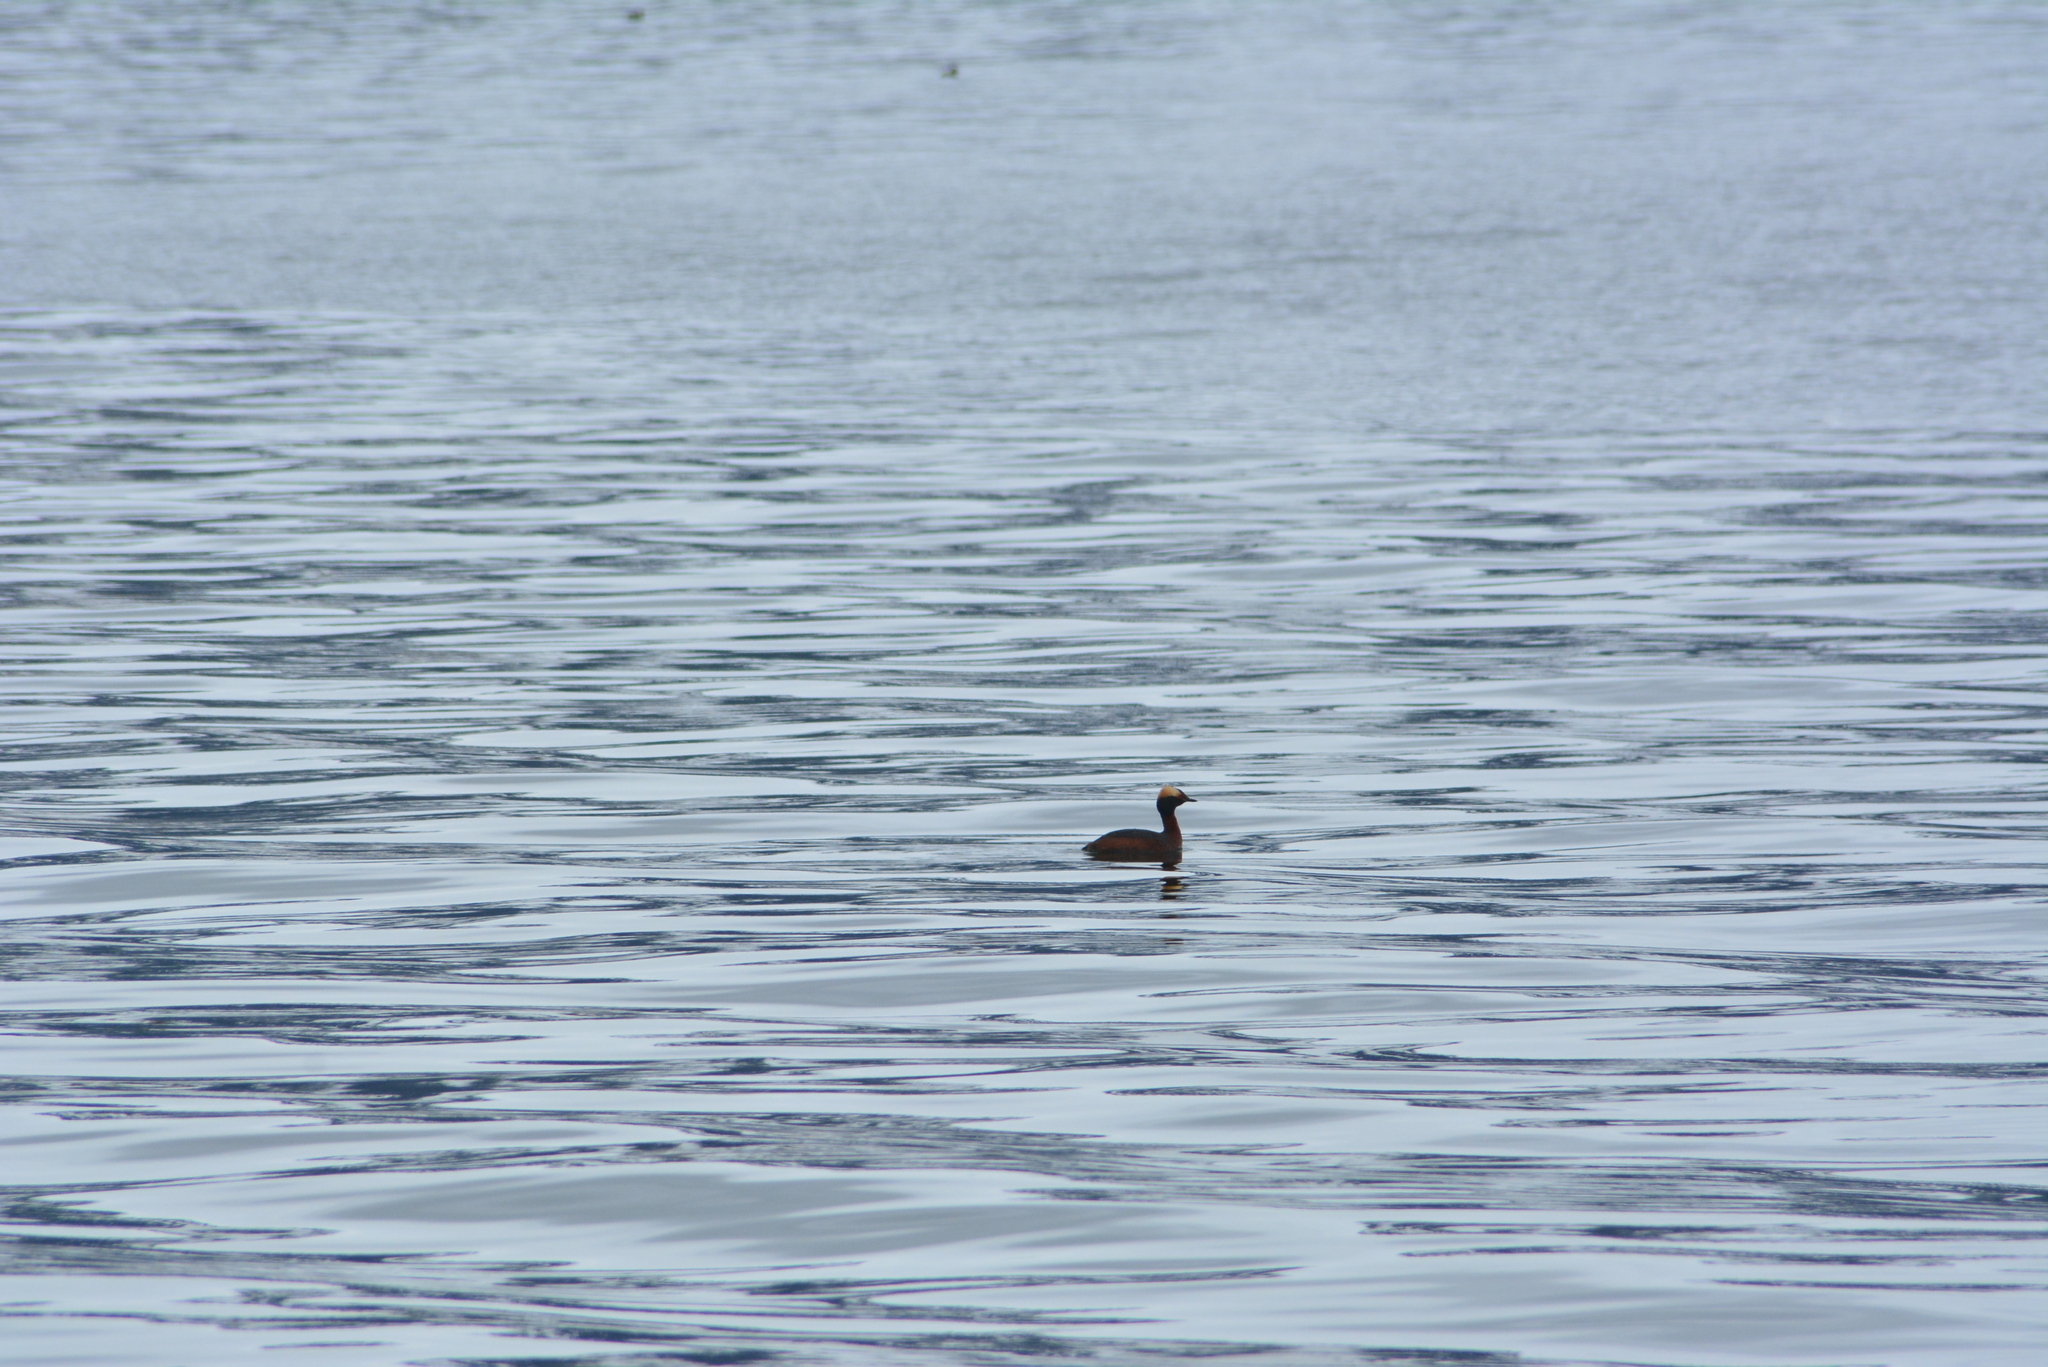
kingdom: Animalia
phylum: Chordata
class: Aves
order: Podicipediformes
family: Podicipedidae
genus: Podiceps
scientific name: Podiceps auritus
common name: Horned grebe
